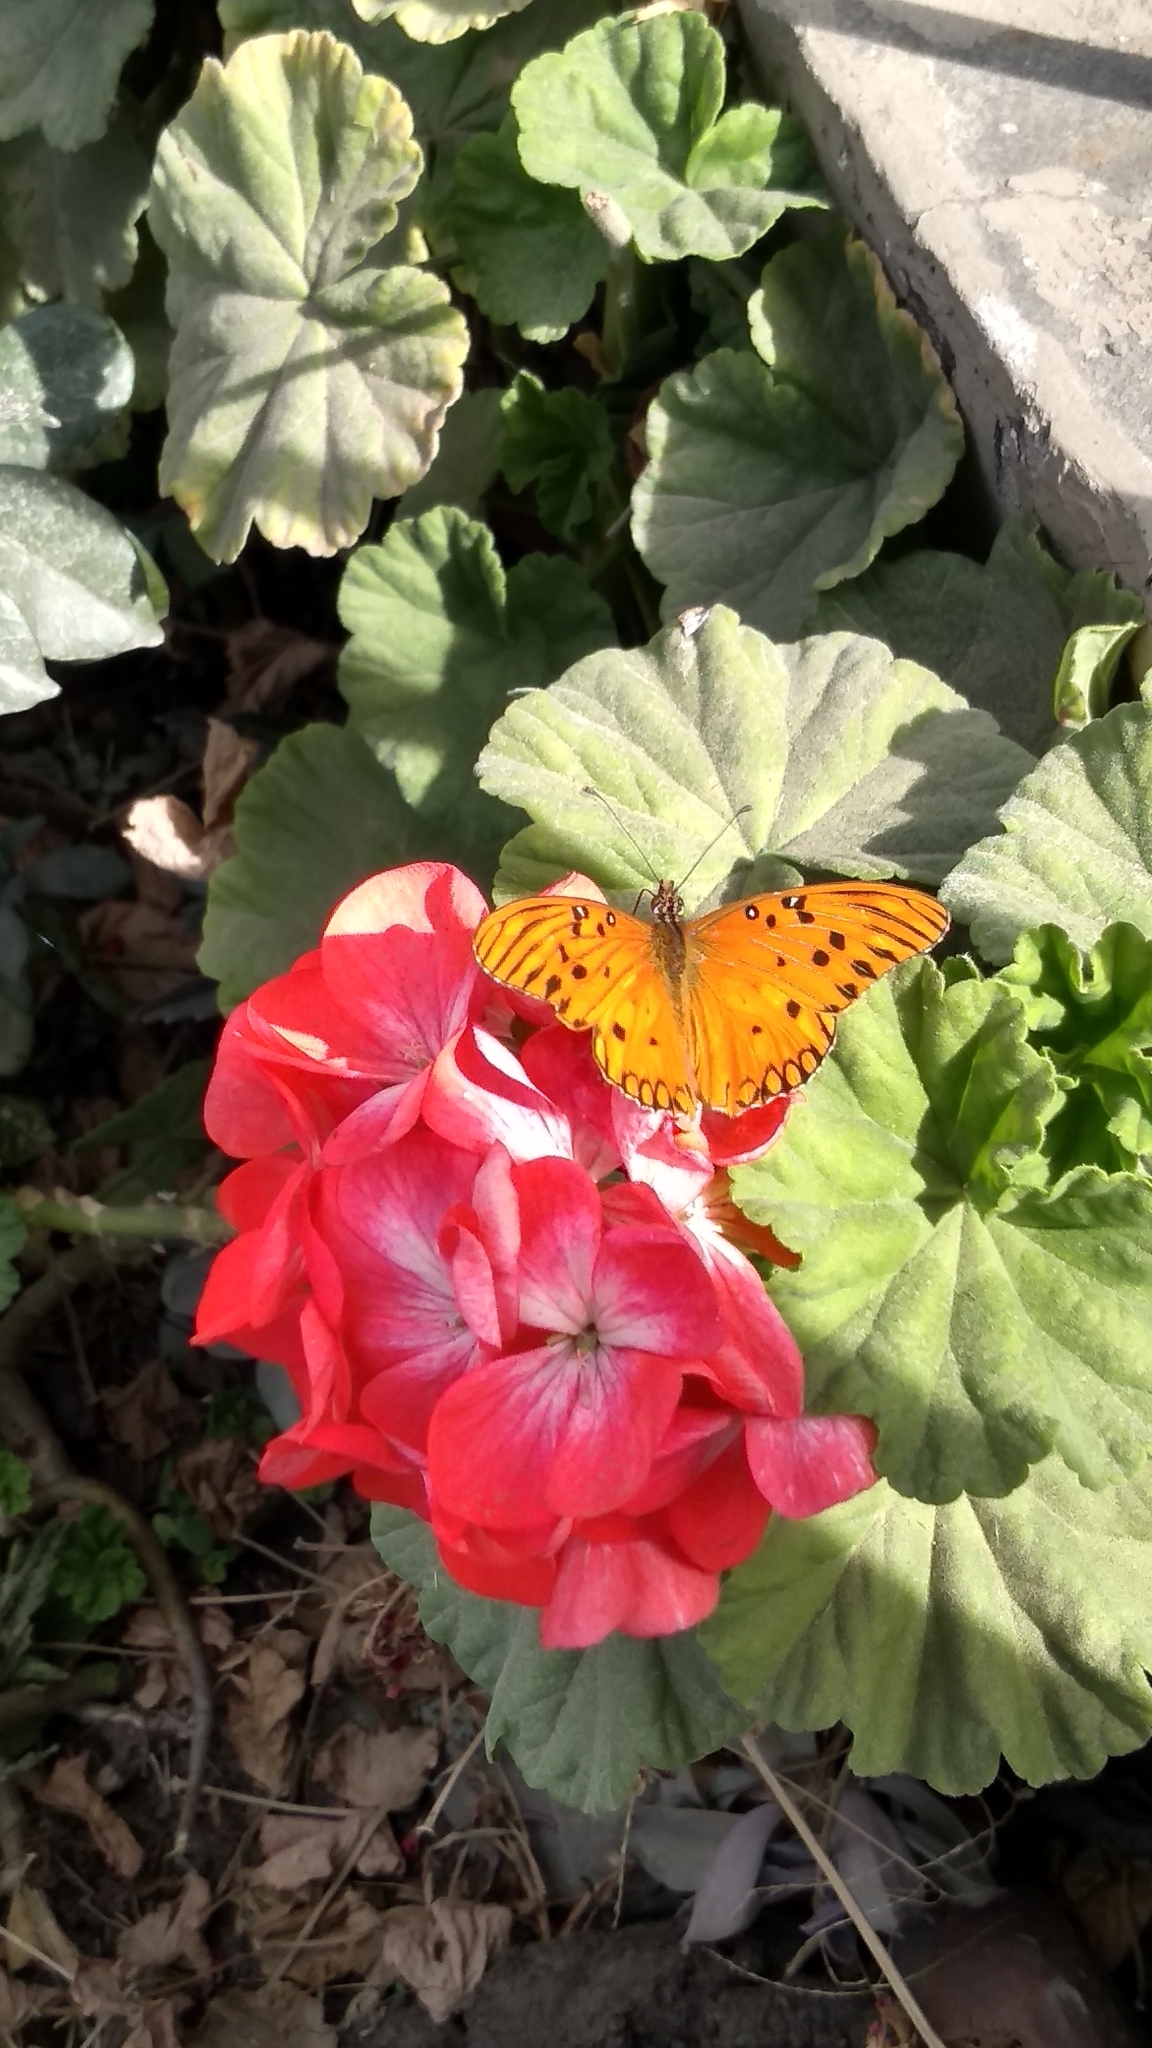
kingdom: Animalia
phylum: Arthropoda
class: Insecta
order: Lepidoptera
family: Nymphalidae
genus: Dione
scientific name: Dione vanillae
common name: Gulf fritillary
